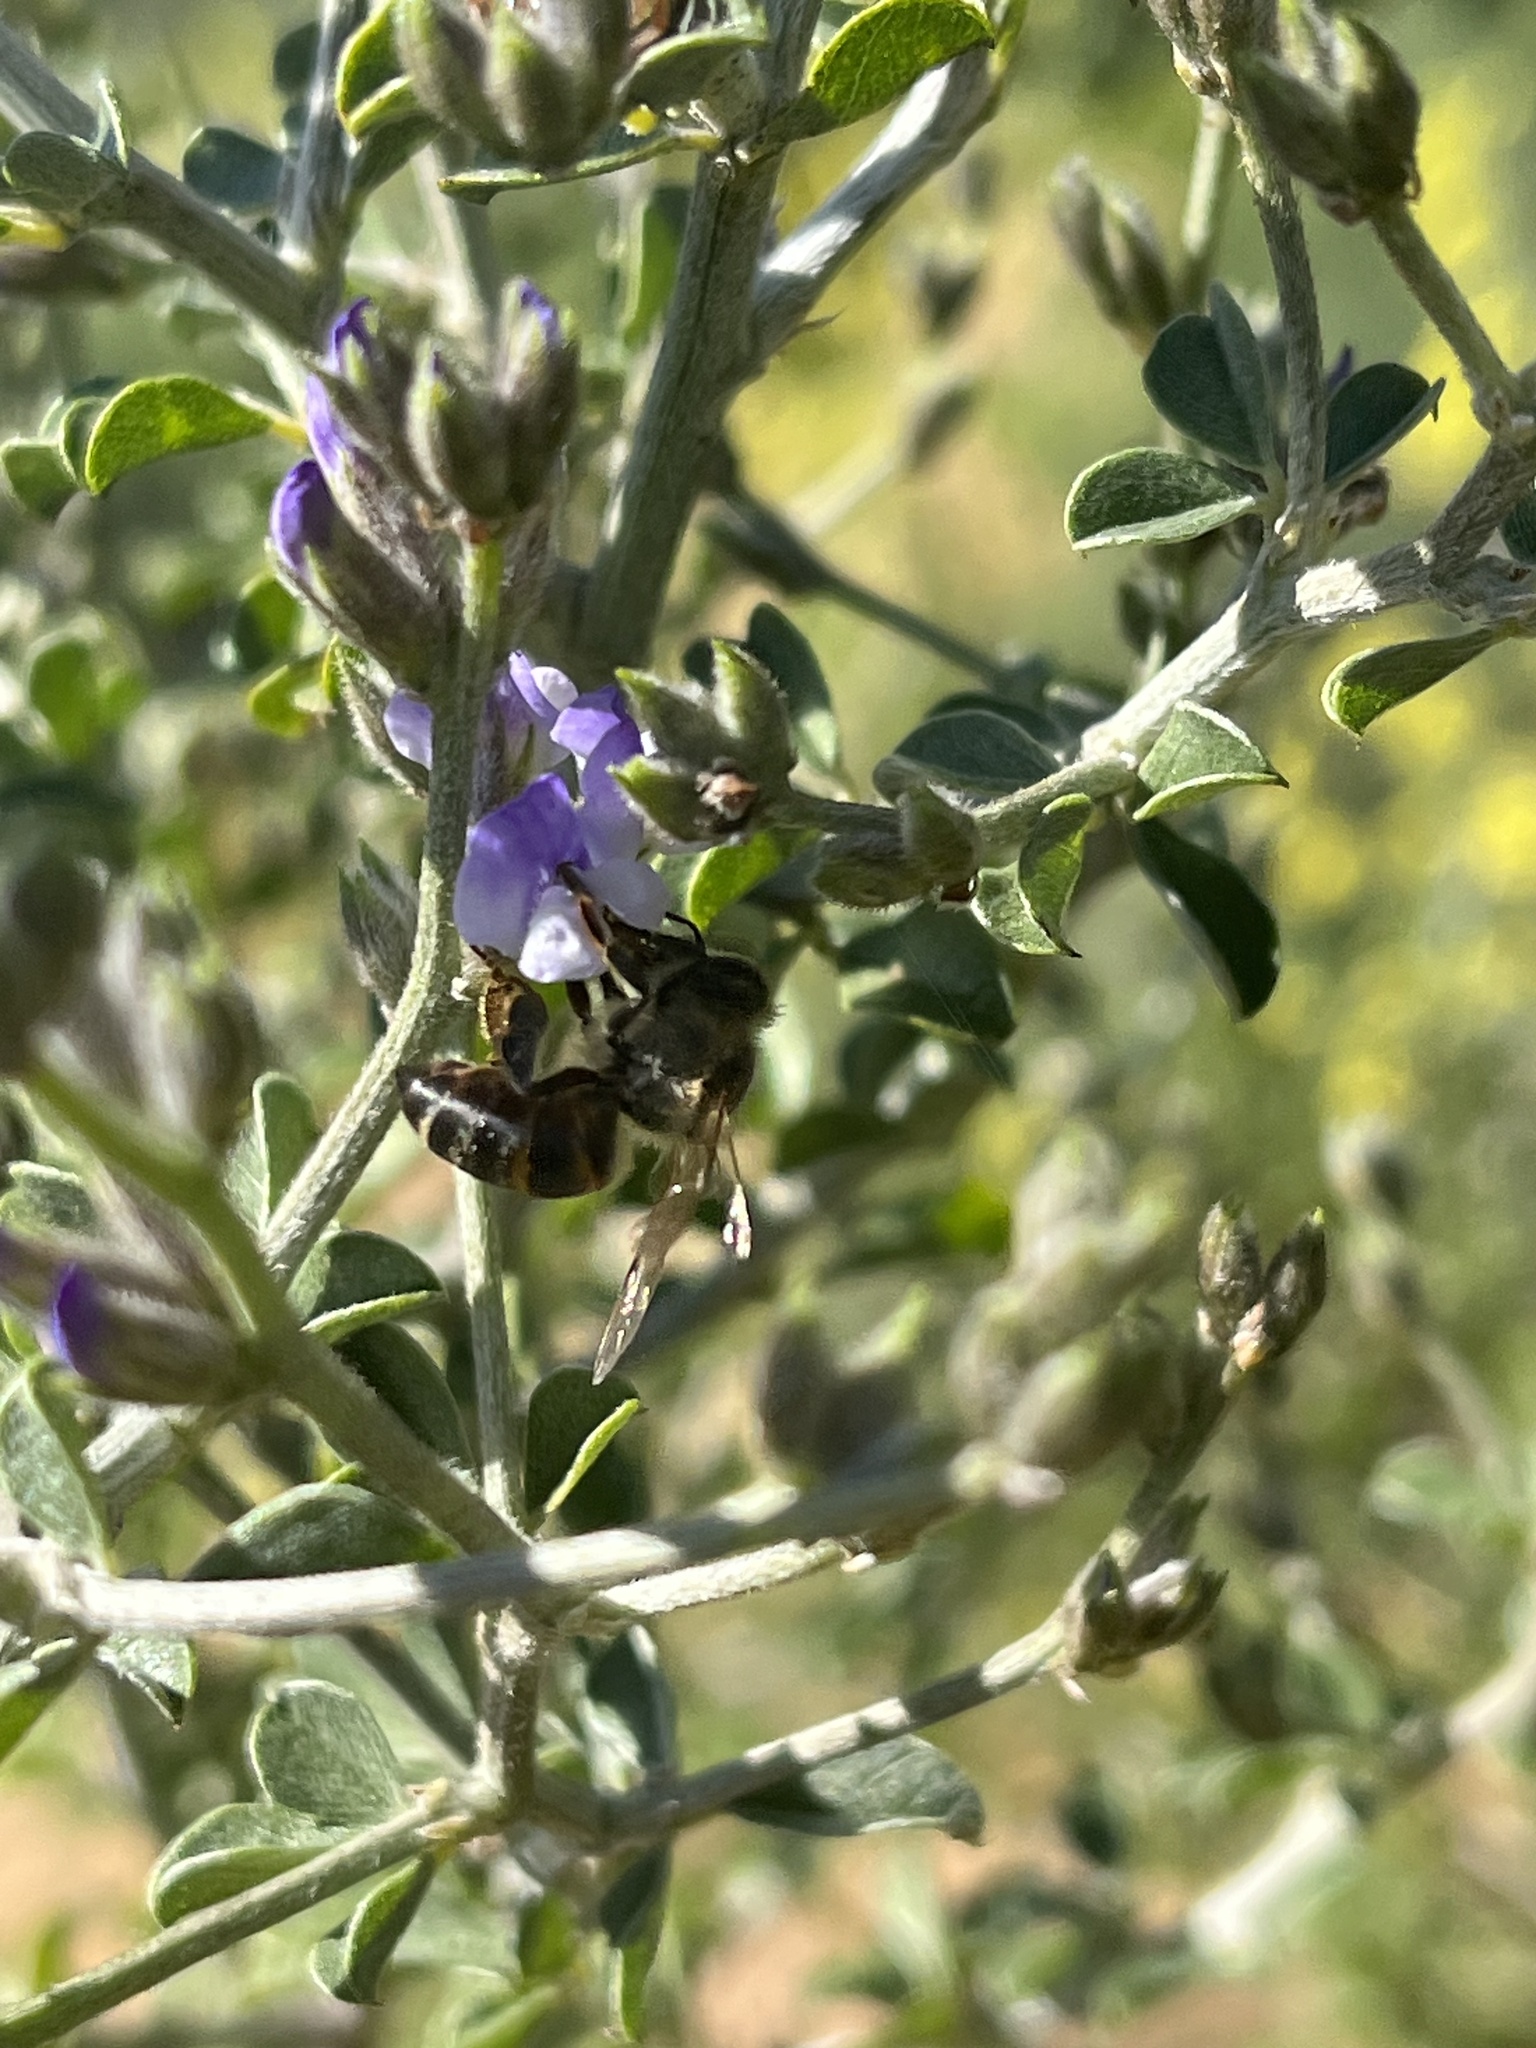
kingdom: Animalia
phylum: Arthropoda
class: Insecta
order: Hymenoptera
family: Apidae
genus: Apis
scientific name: Apis mellifera
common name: Honey bee
